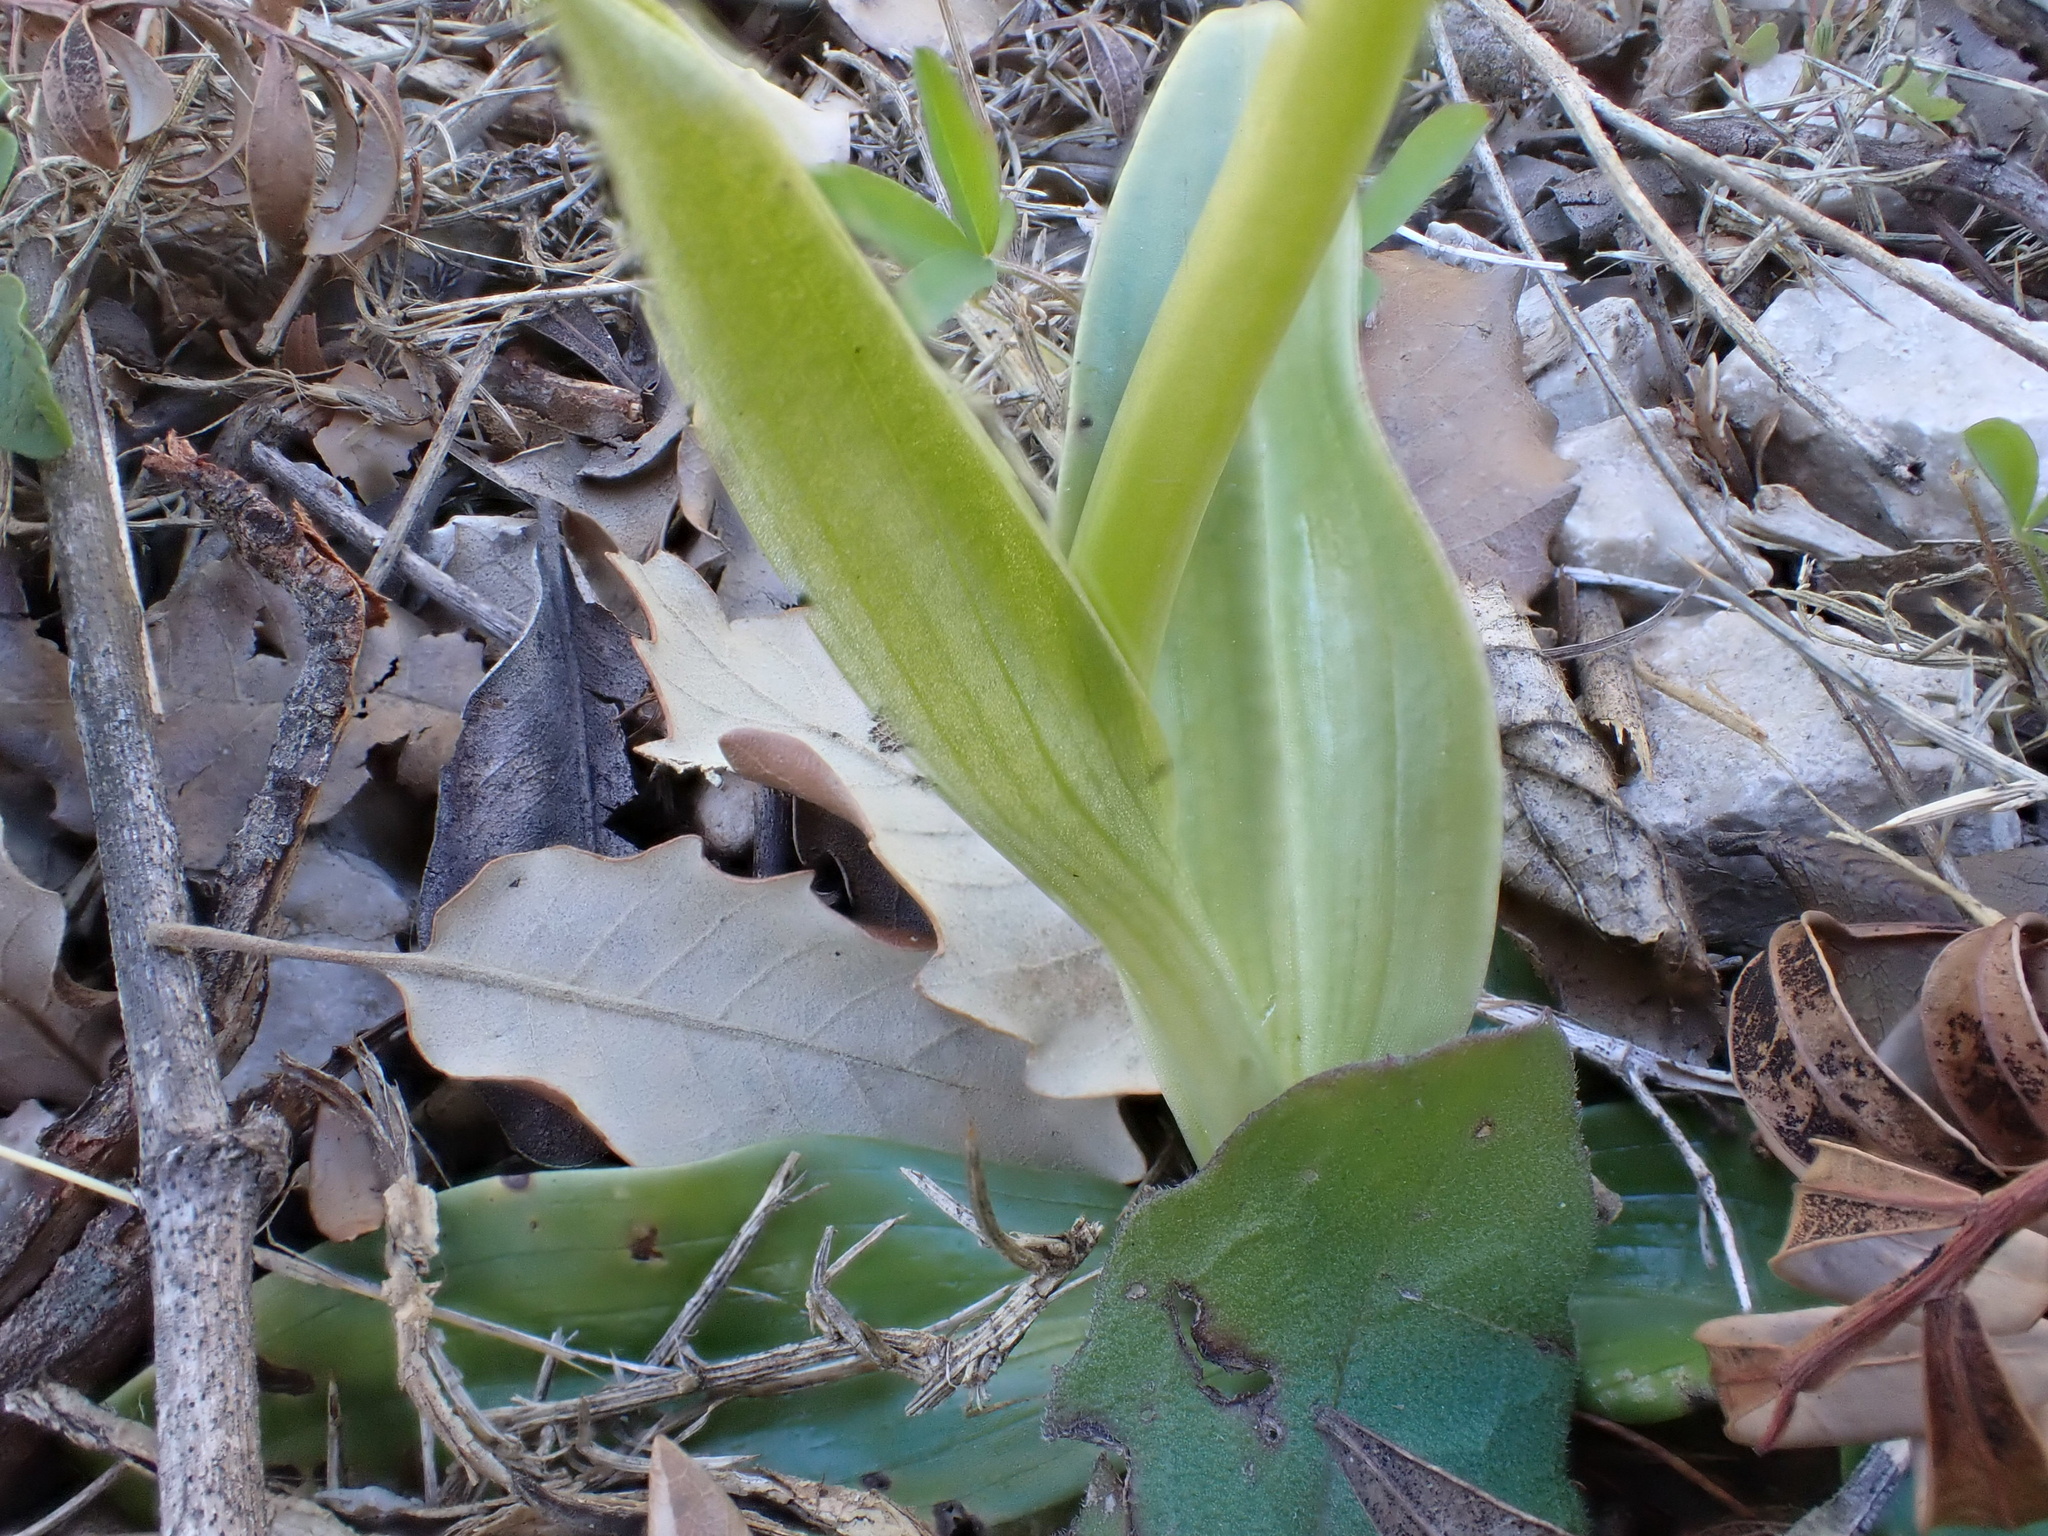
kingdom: Plantae
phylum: Tracheophyta
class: Liliopsida
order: Asparagales
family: Orchidaceae
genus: Ophrys
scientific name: Ophrys tenthredinifera
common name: Sawfly orchid
